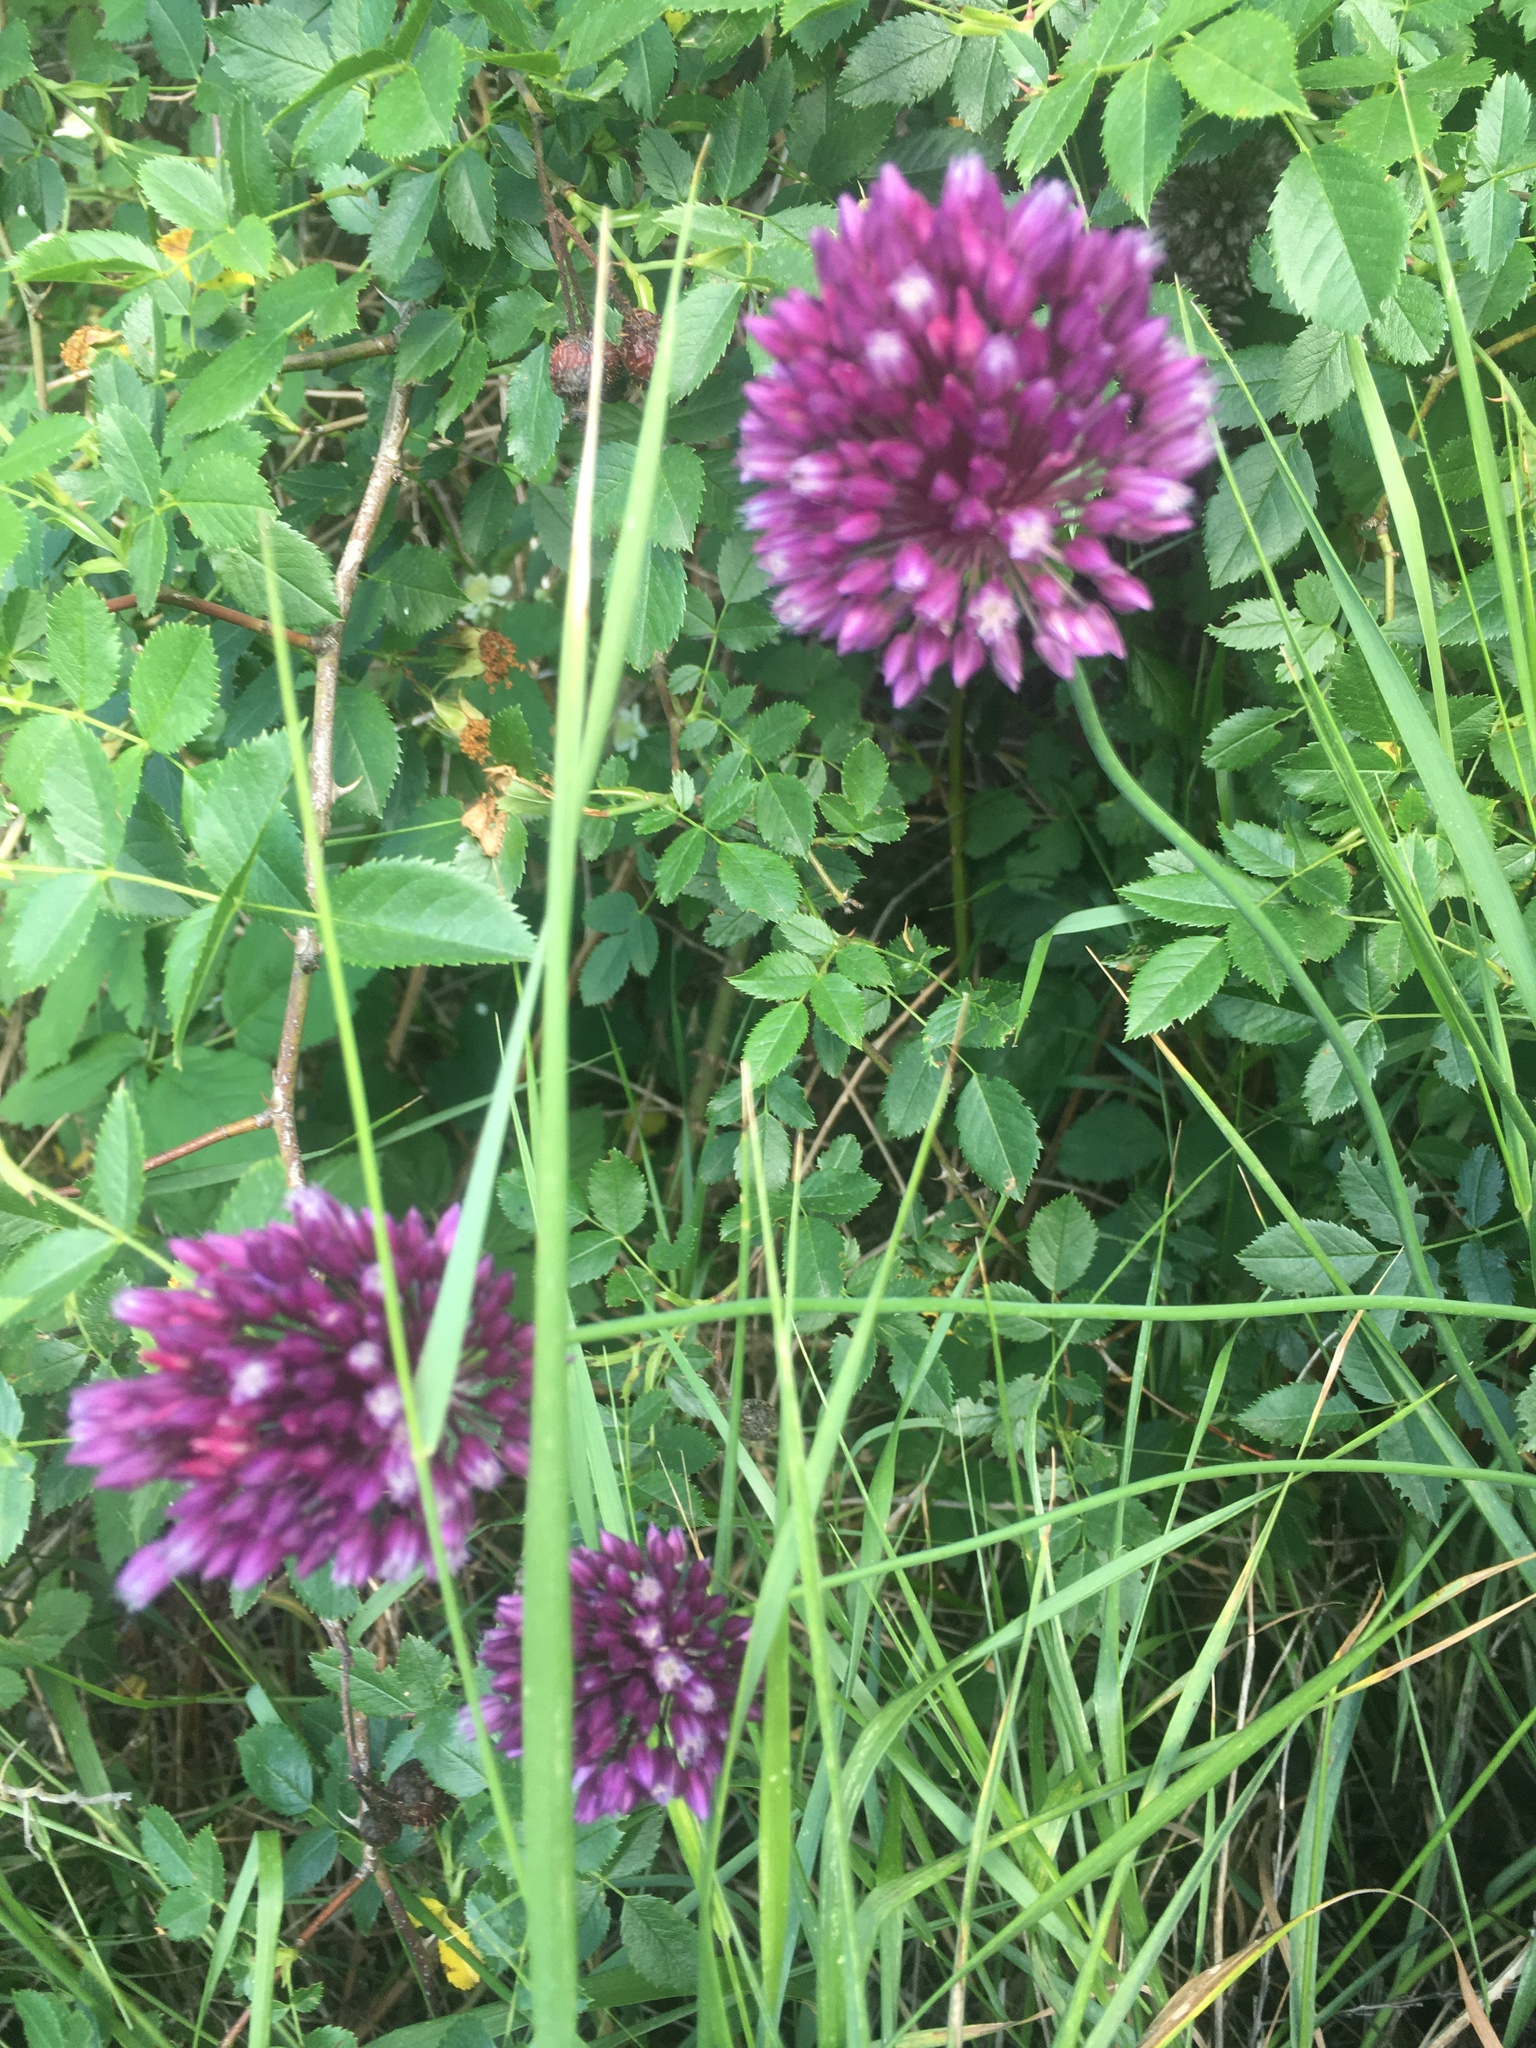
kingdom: Plantae
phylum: Tracheophyta
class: Liliopsida
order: Asparagales
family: Amaryllidaceae
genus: Allium
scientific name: Allium rotundum
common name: Sand leek
